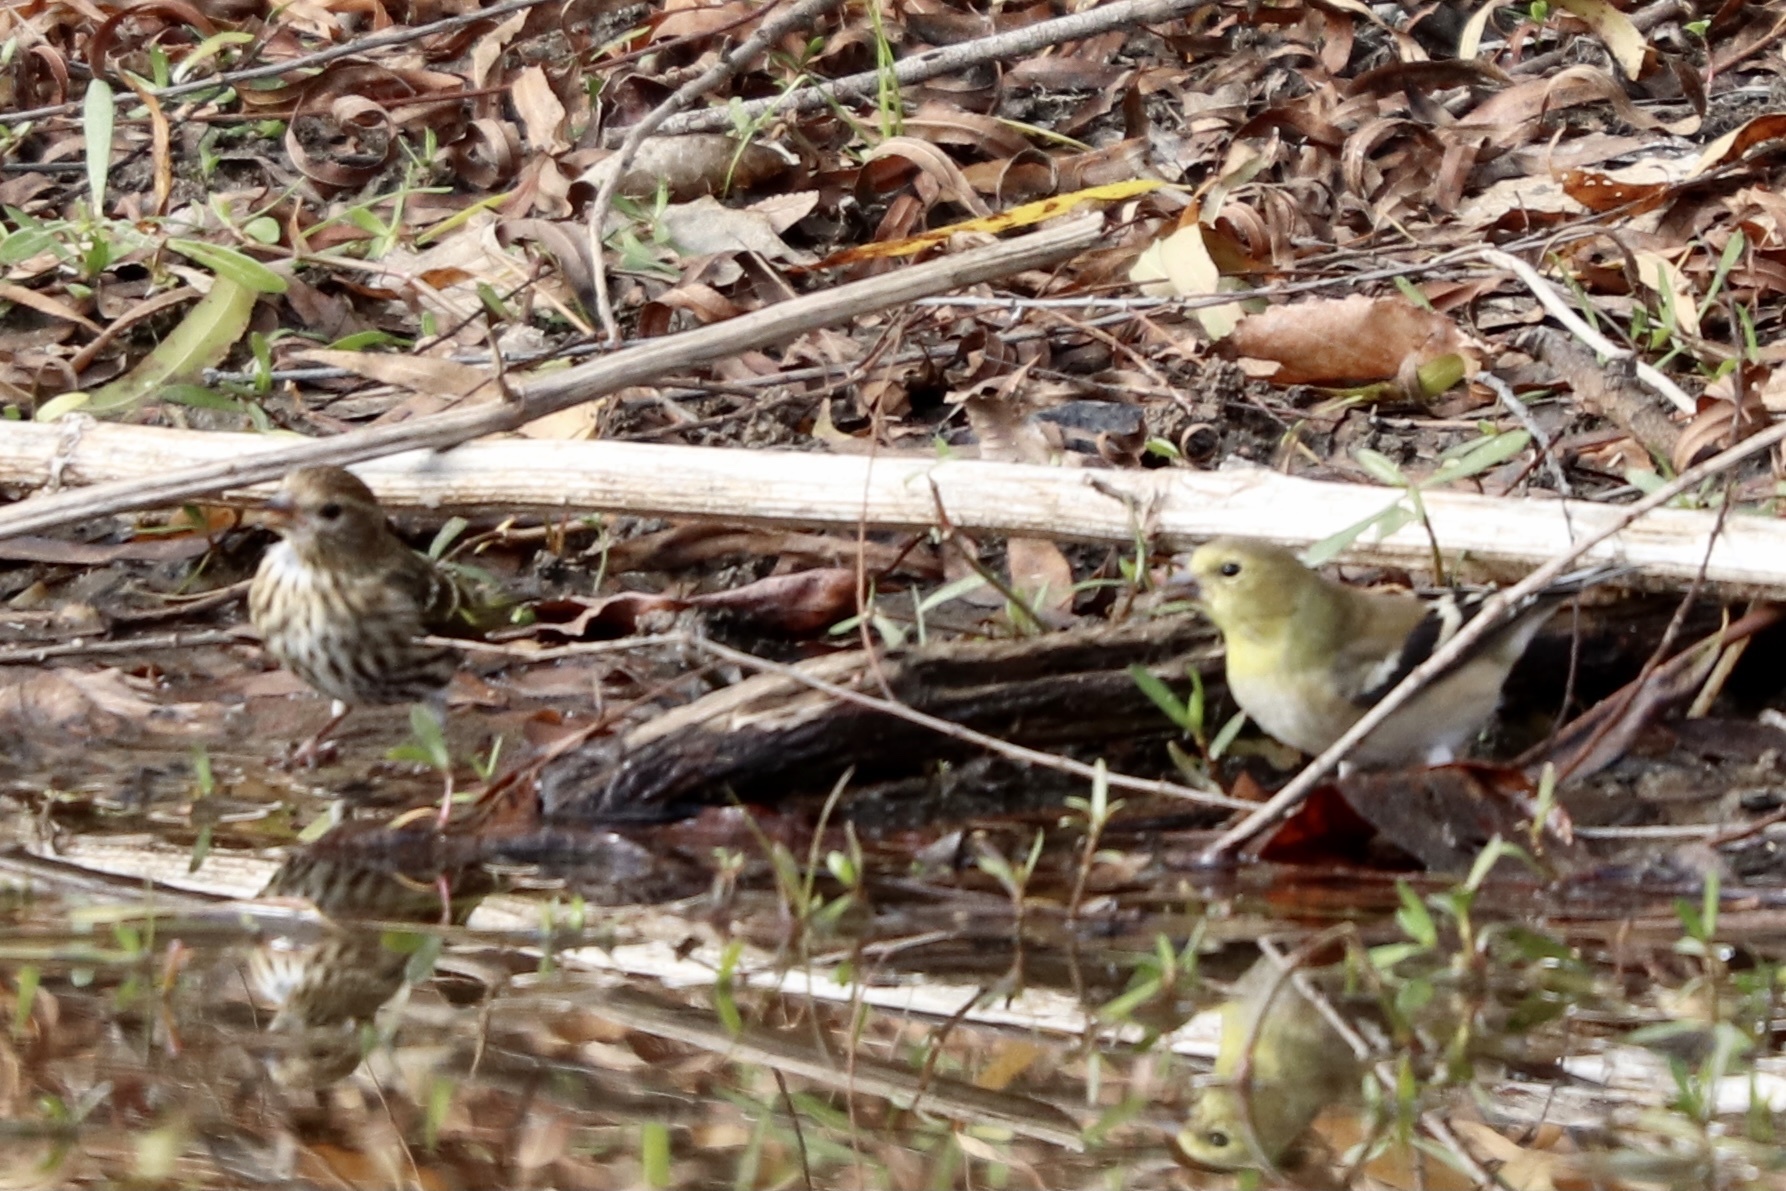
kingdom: Animalia
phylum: Chordata
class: Aves
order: Passeriformes
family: Fringillidae
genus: Spinus
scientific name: Spinus tristis
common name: American goldfinch
